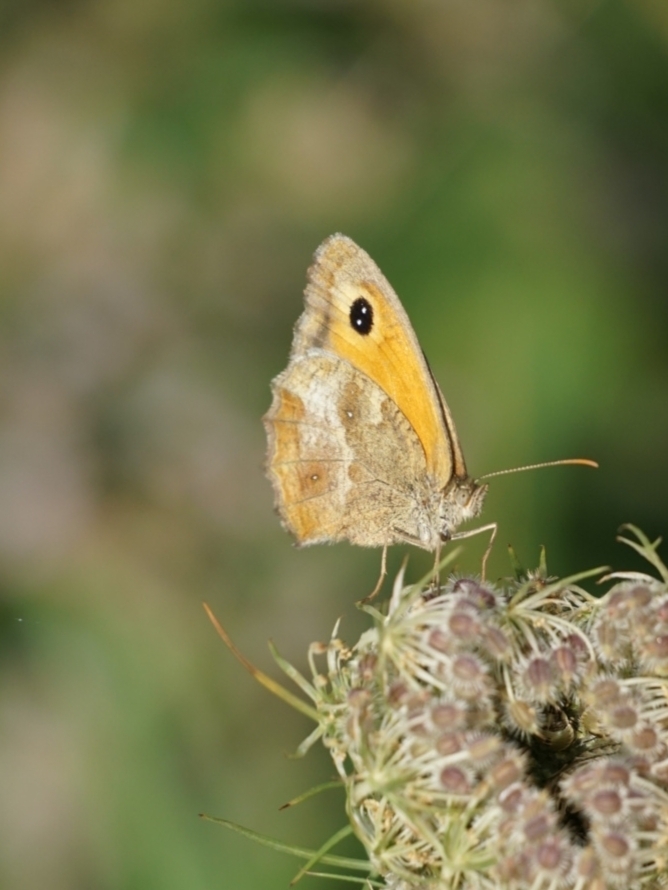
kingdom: Animalia
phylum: Arthropoda
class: Insecta
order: Lepidoptera
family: Nymphalidae
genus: Pyronia
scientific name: Pyronia tithonus
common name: Gatekeeper
